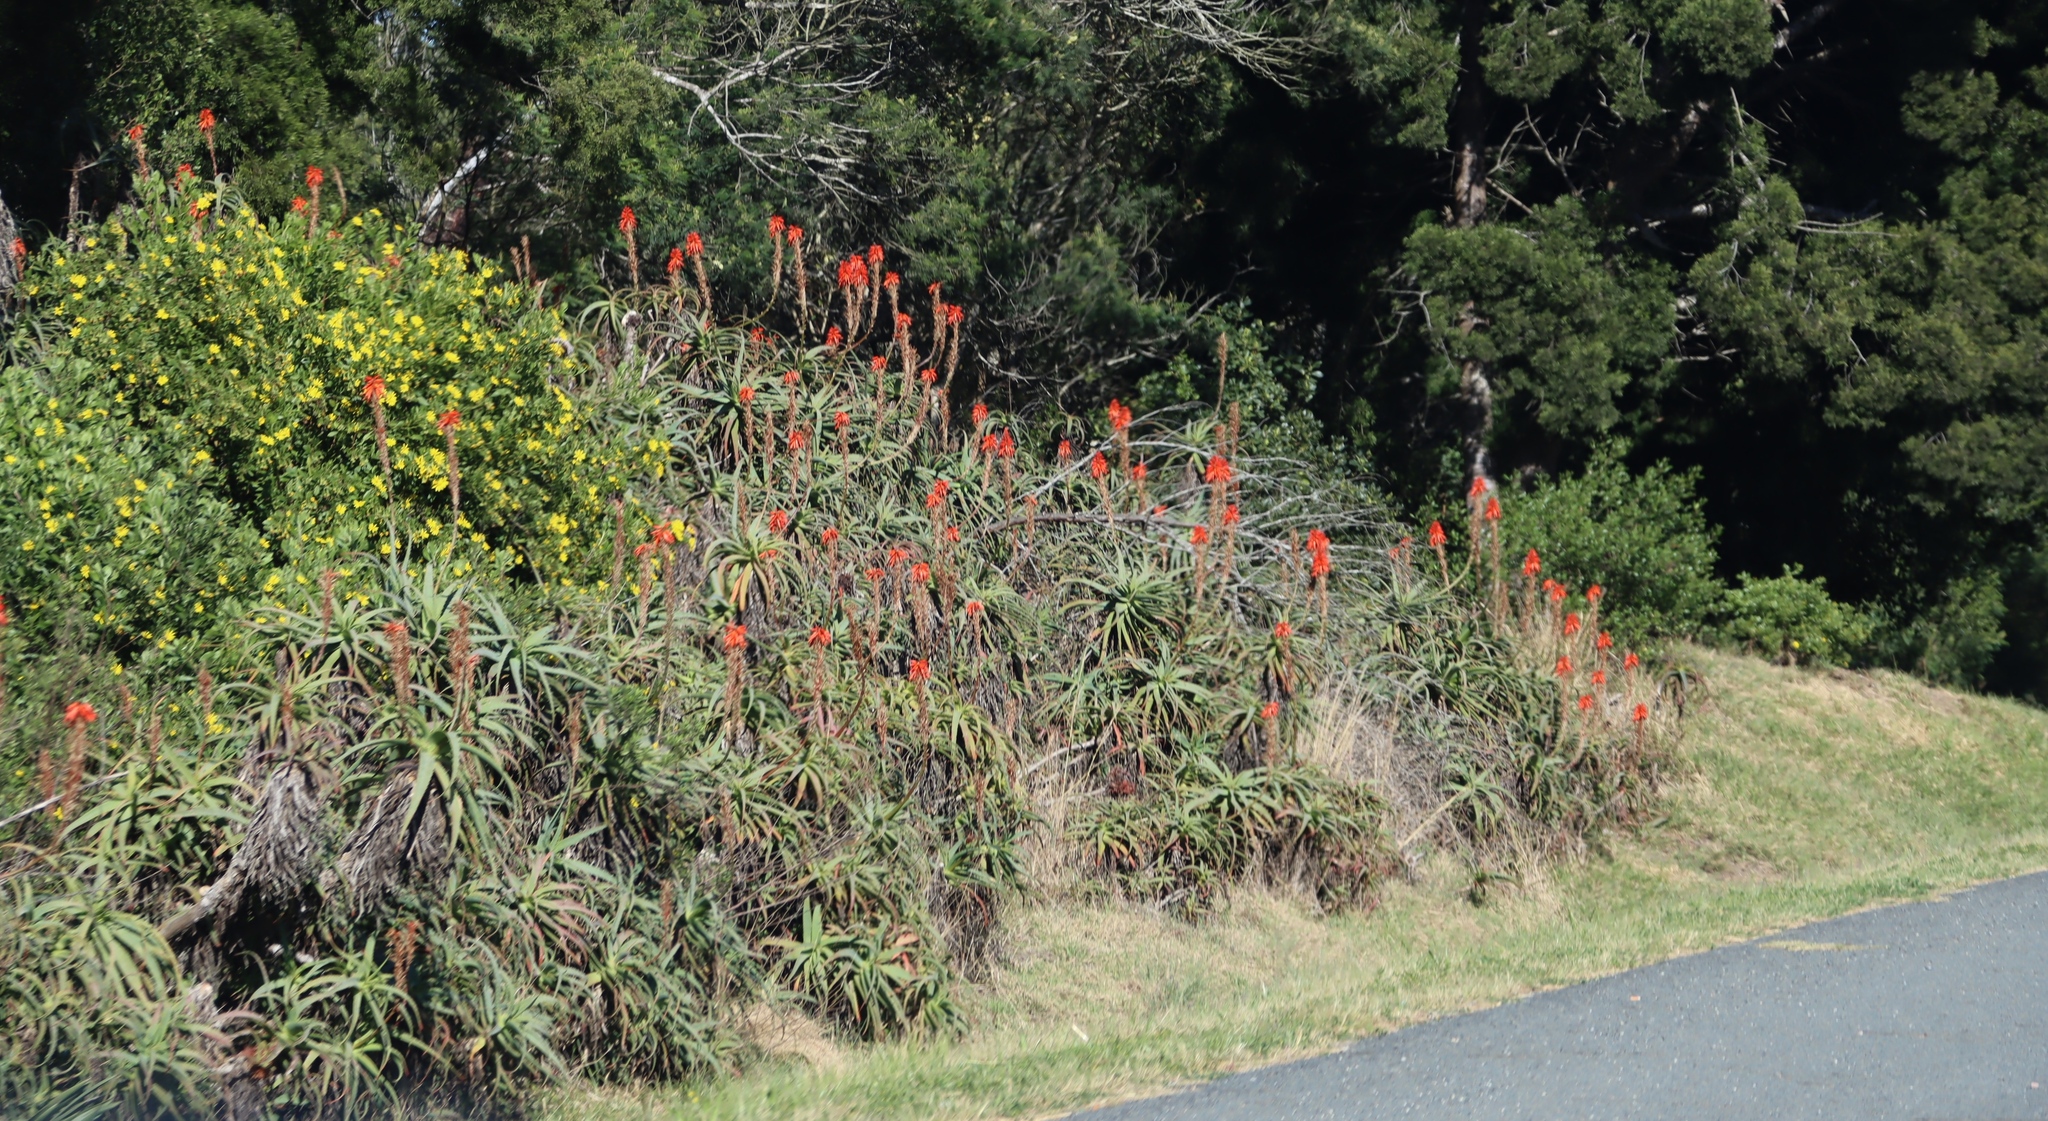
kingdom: Plantae
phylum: Tracheophyta
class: Liliopsida
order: Asparagales
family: Asphodelaceae
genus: Aloe
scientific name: Aloe arborescens
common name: Candelabra aloe
